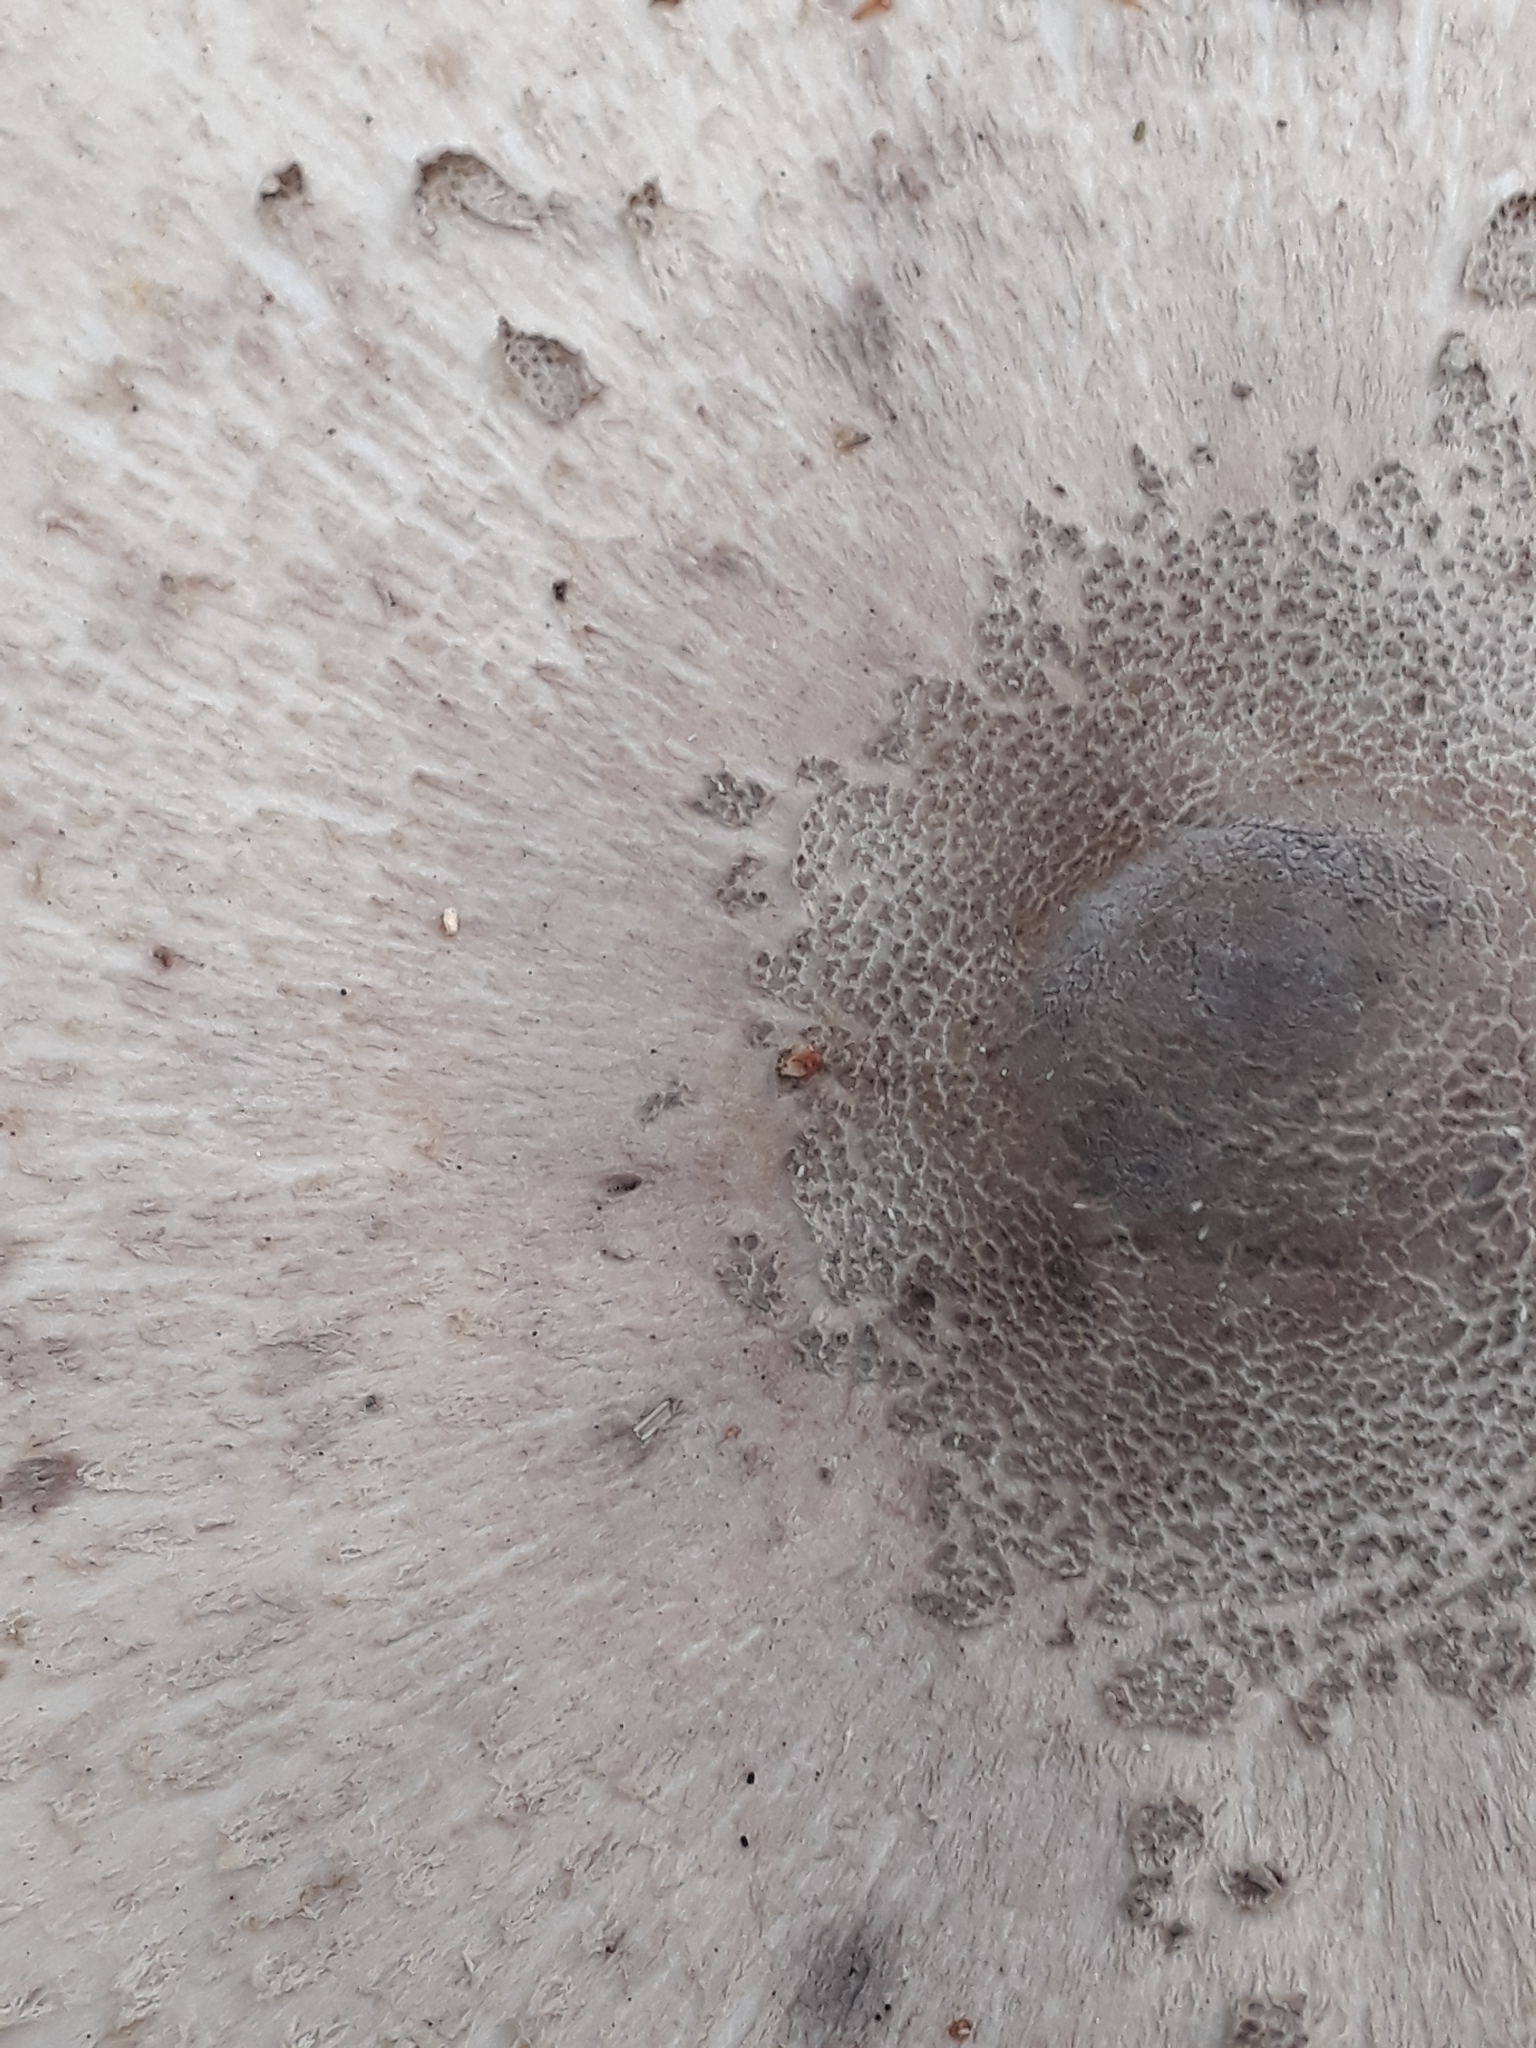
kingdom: Fungi
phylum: Basidiomycota
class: Agaricomycetes
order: Agaricales
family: Agaricaceae
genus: Macrolepiota
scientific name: Macrolepiota procera
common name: Parasol
